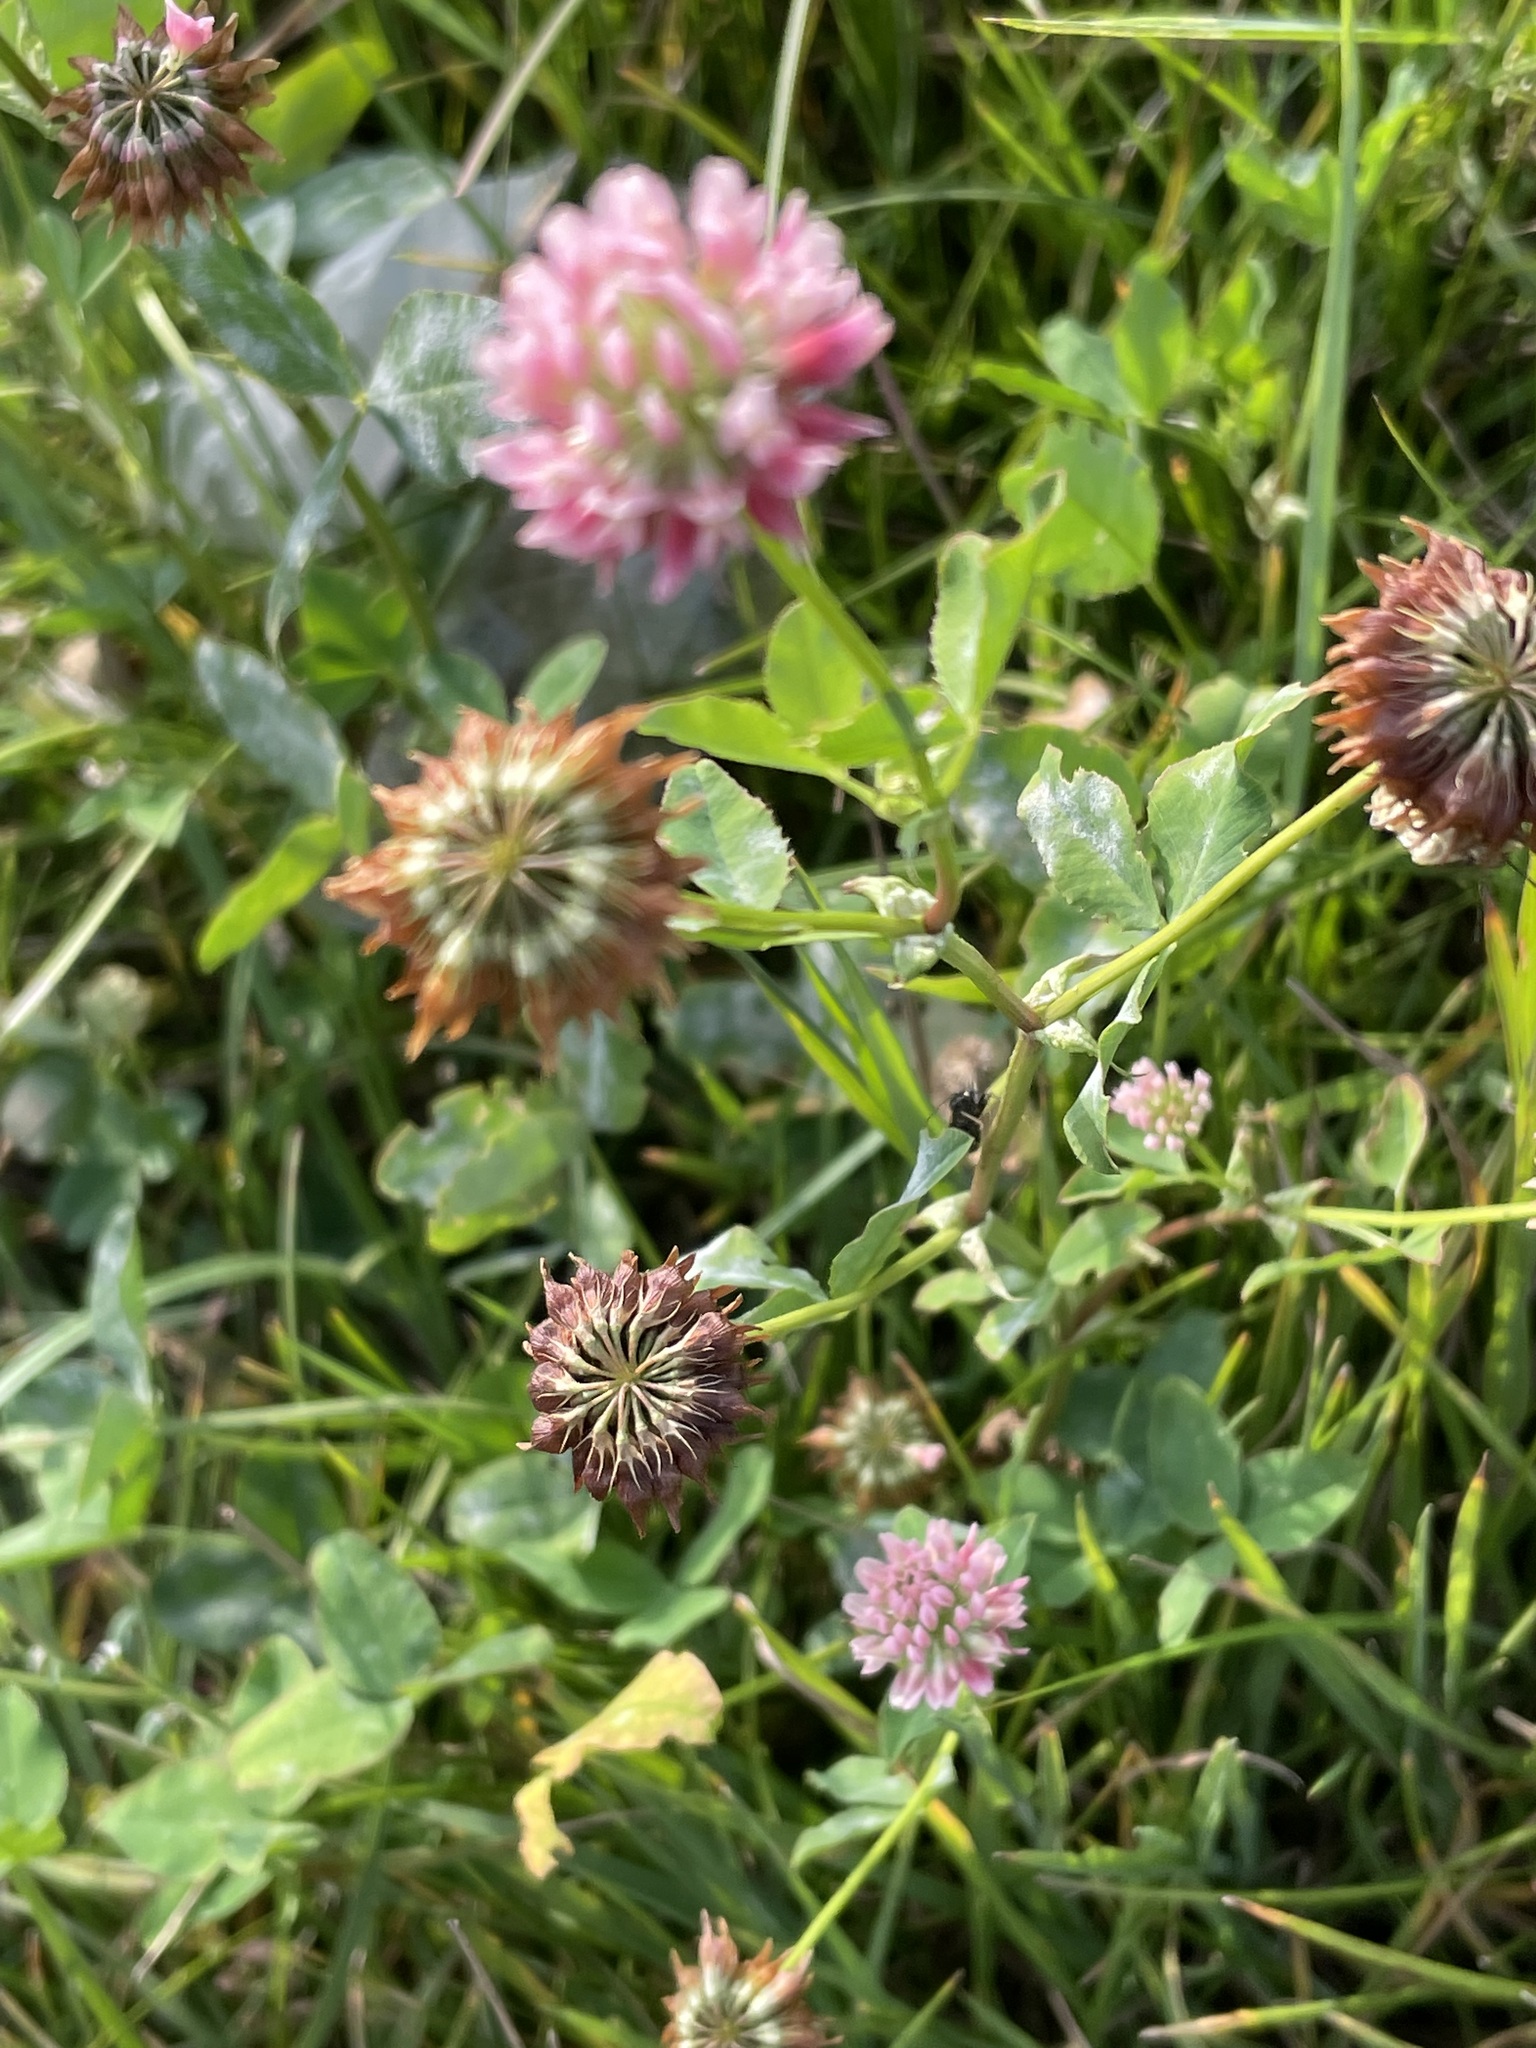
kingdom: Plantae
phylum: Tracheophyta
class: Magnoliopsida
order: Fabales
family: Fabaceae
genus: Trifolium
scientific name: Trifolium hybridum
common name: Alsike clover
